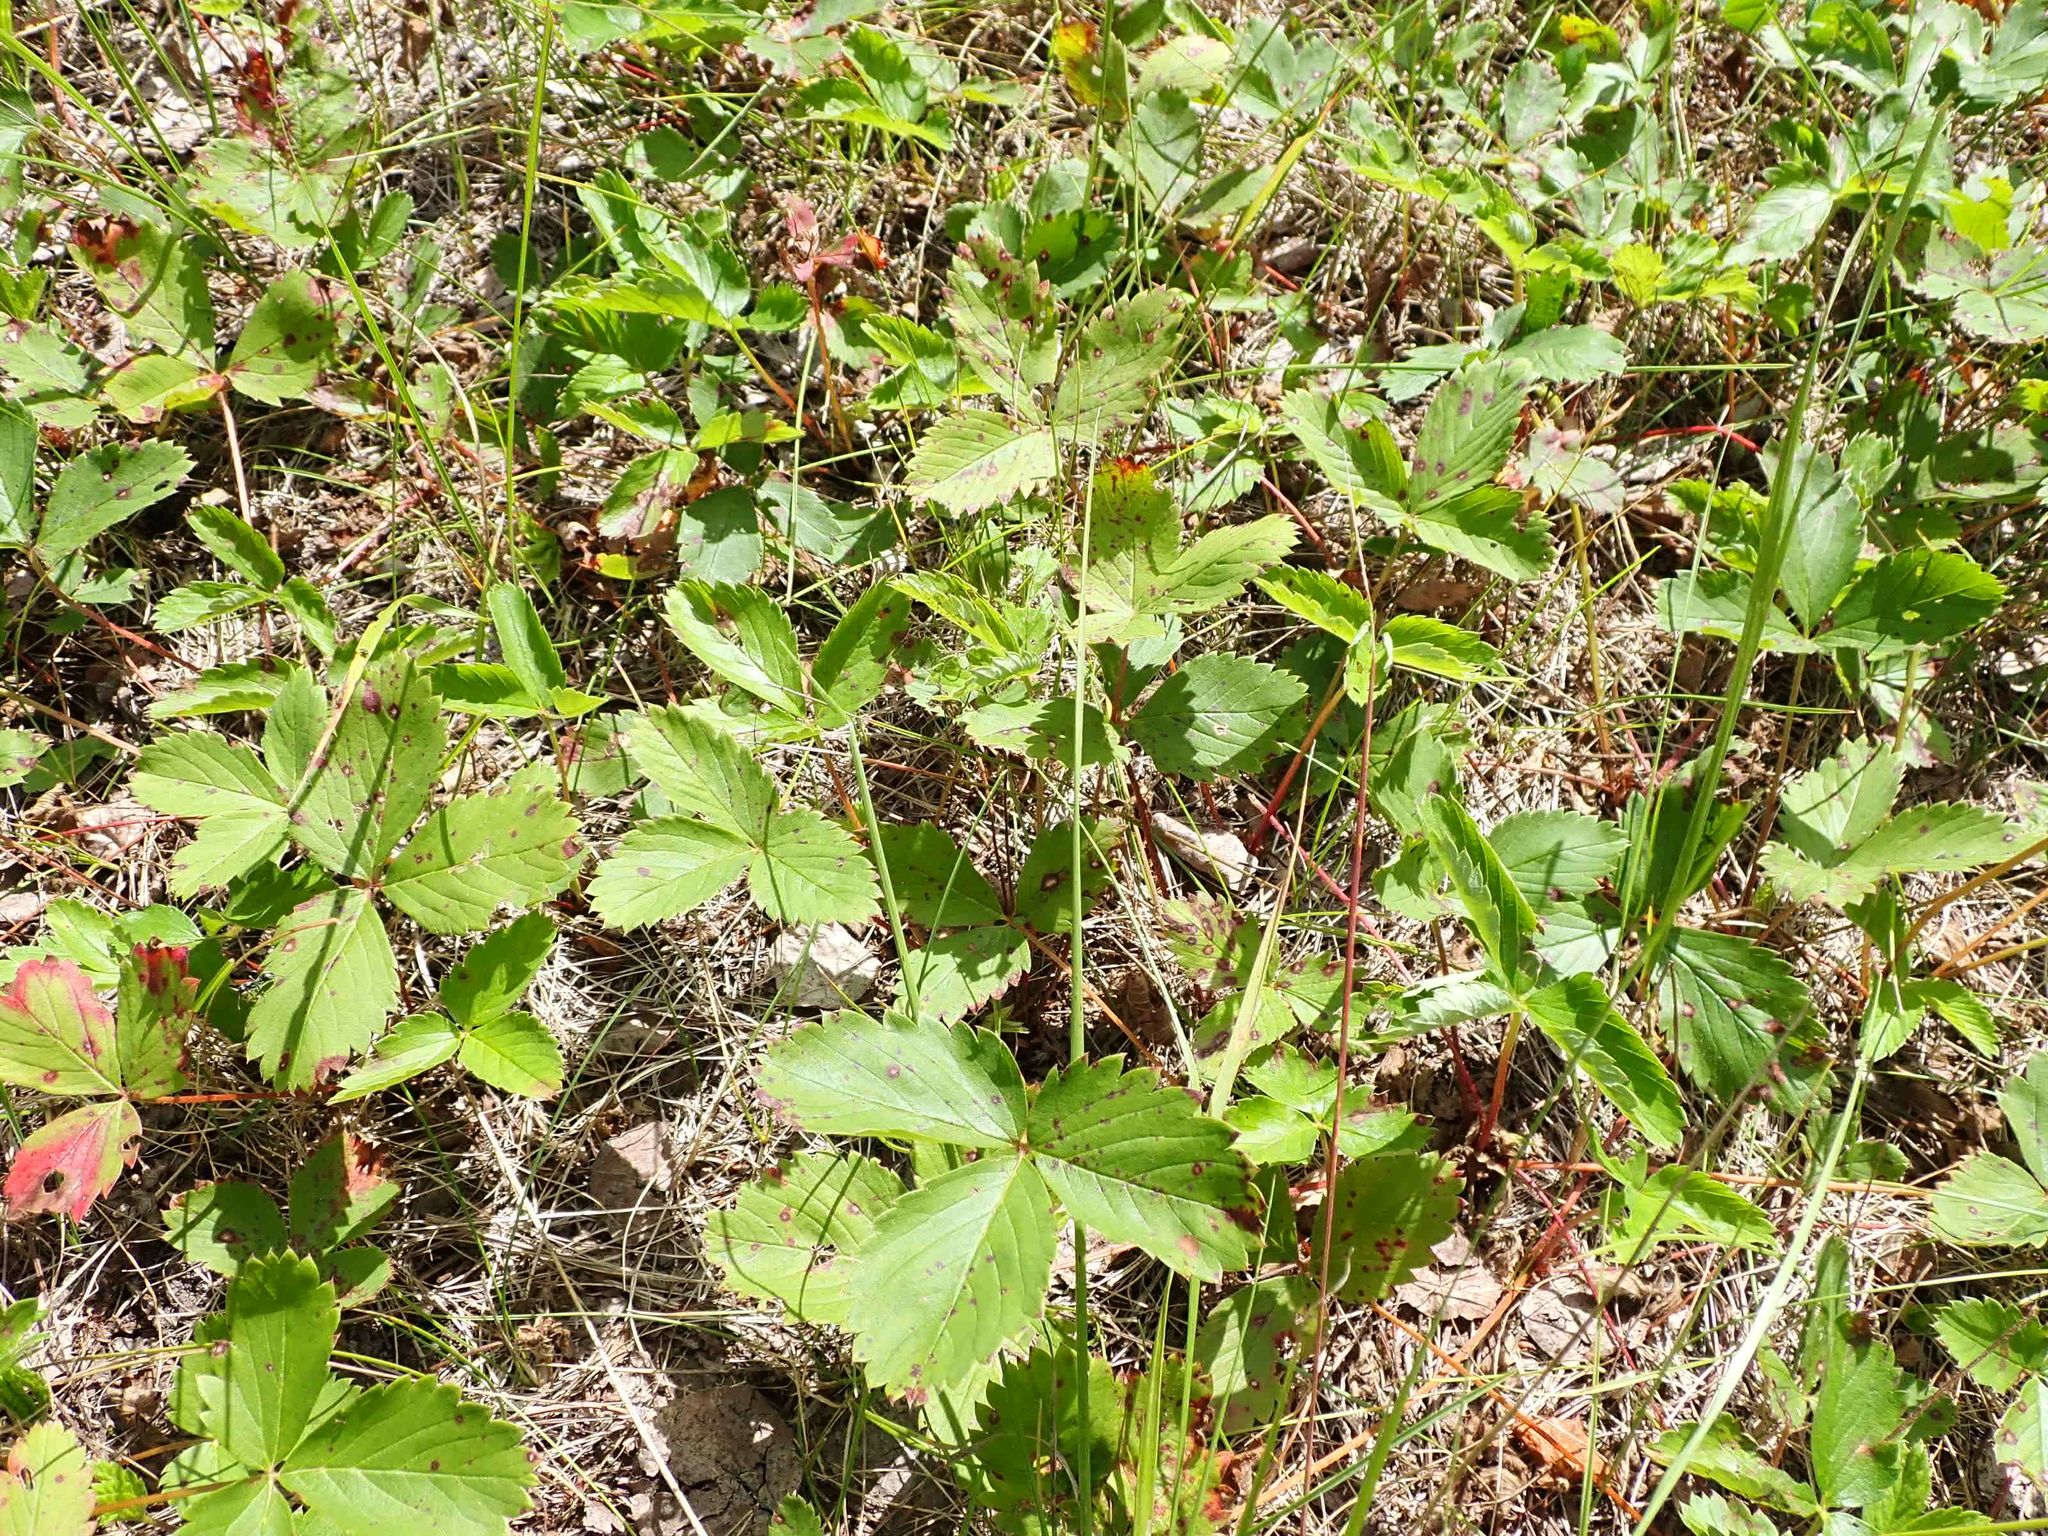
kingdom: Plantae
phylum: Tracheophyta
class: Magnoliopsida
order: Rosales
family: Rosaceae
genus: Fragaria
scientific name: Fragaria virginiana
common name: Thickleaved wild strawberry
